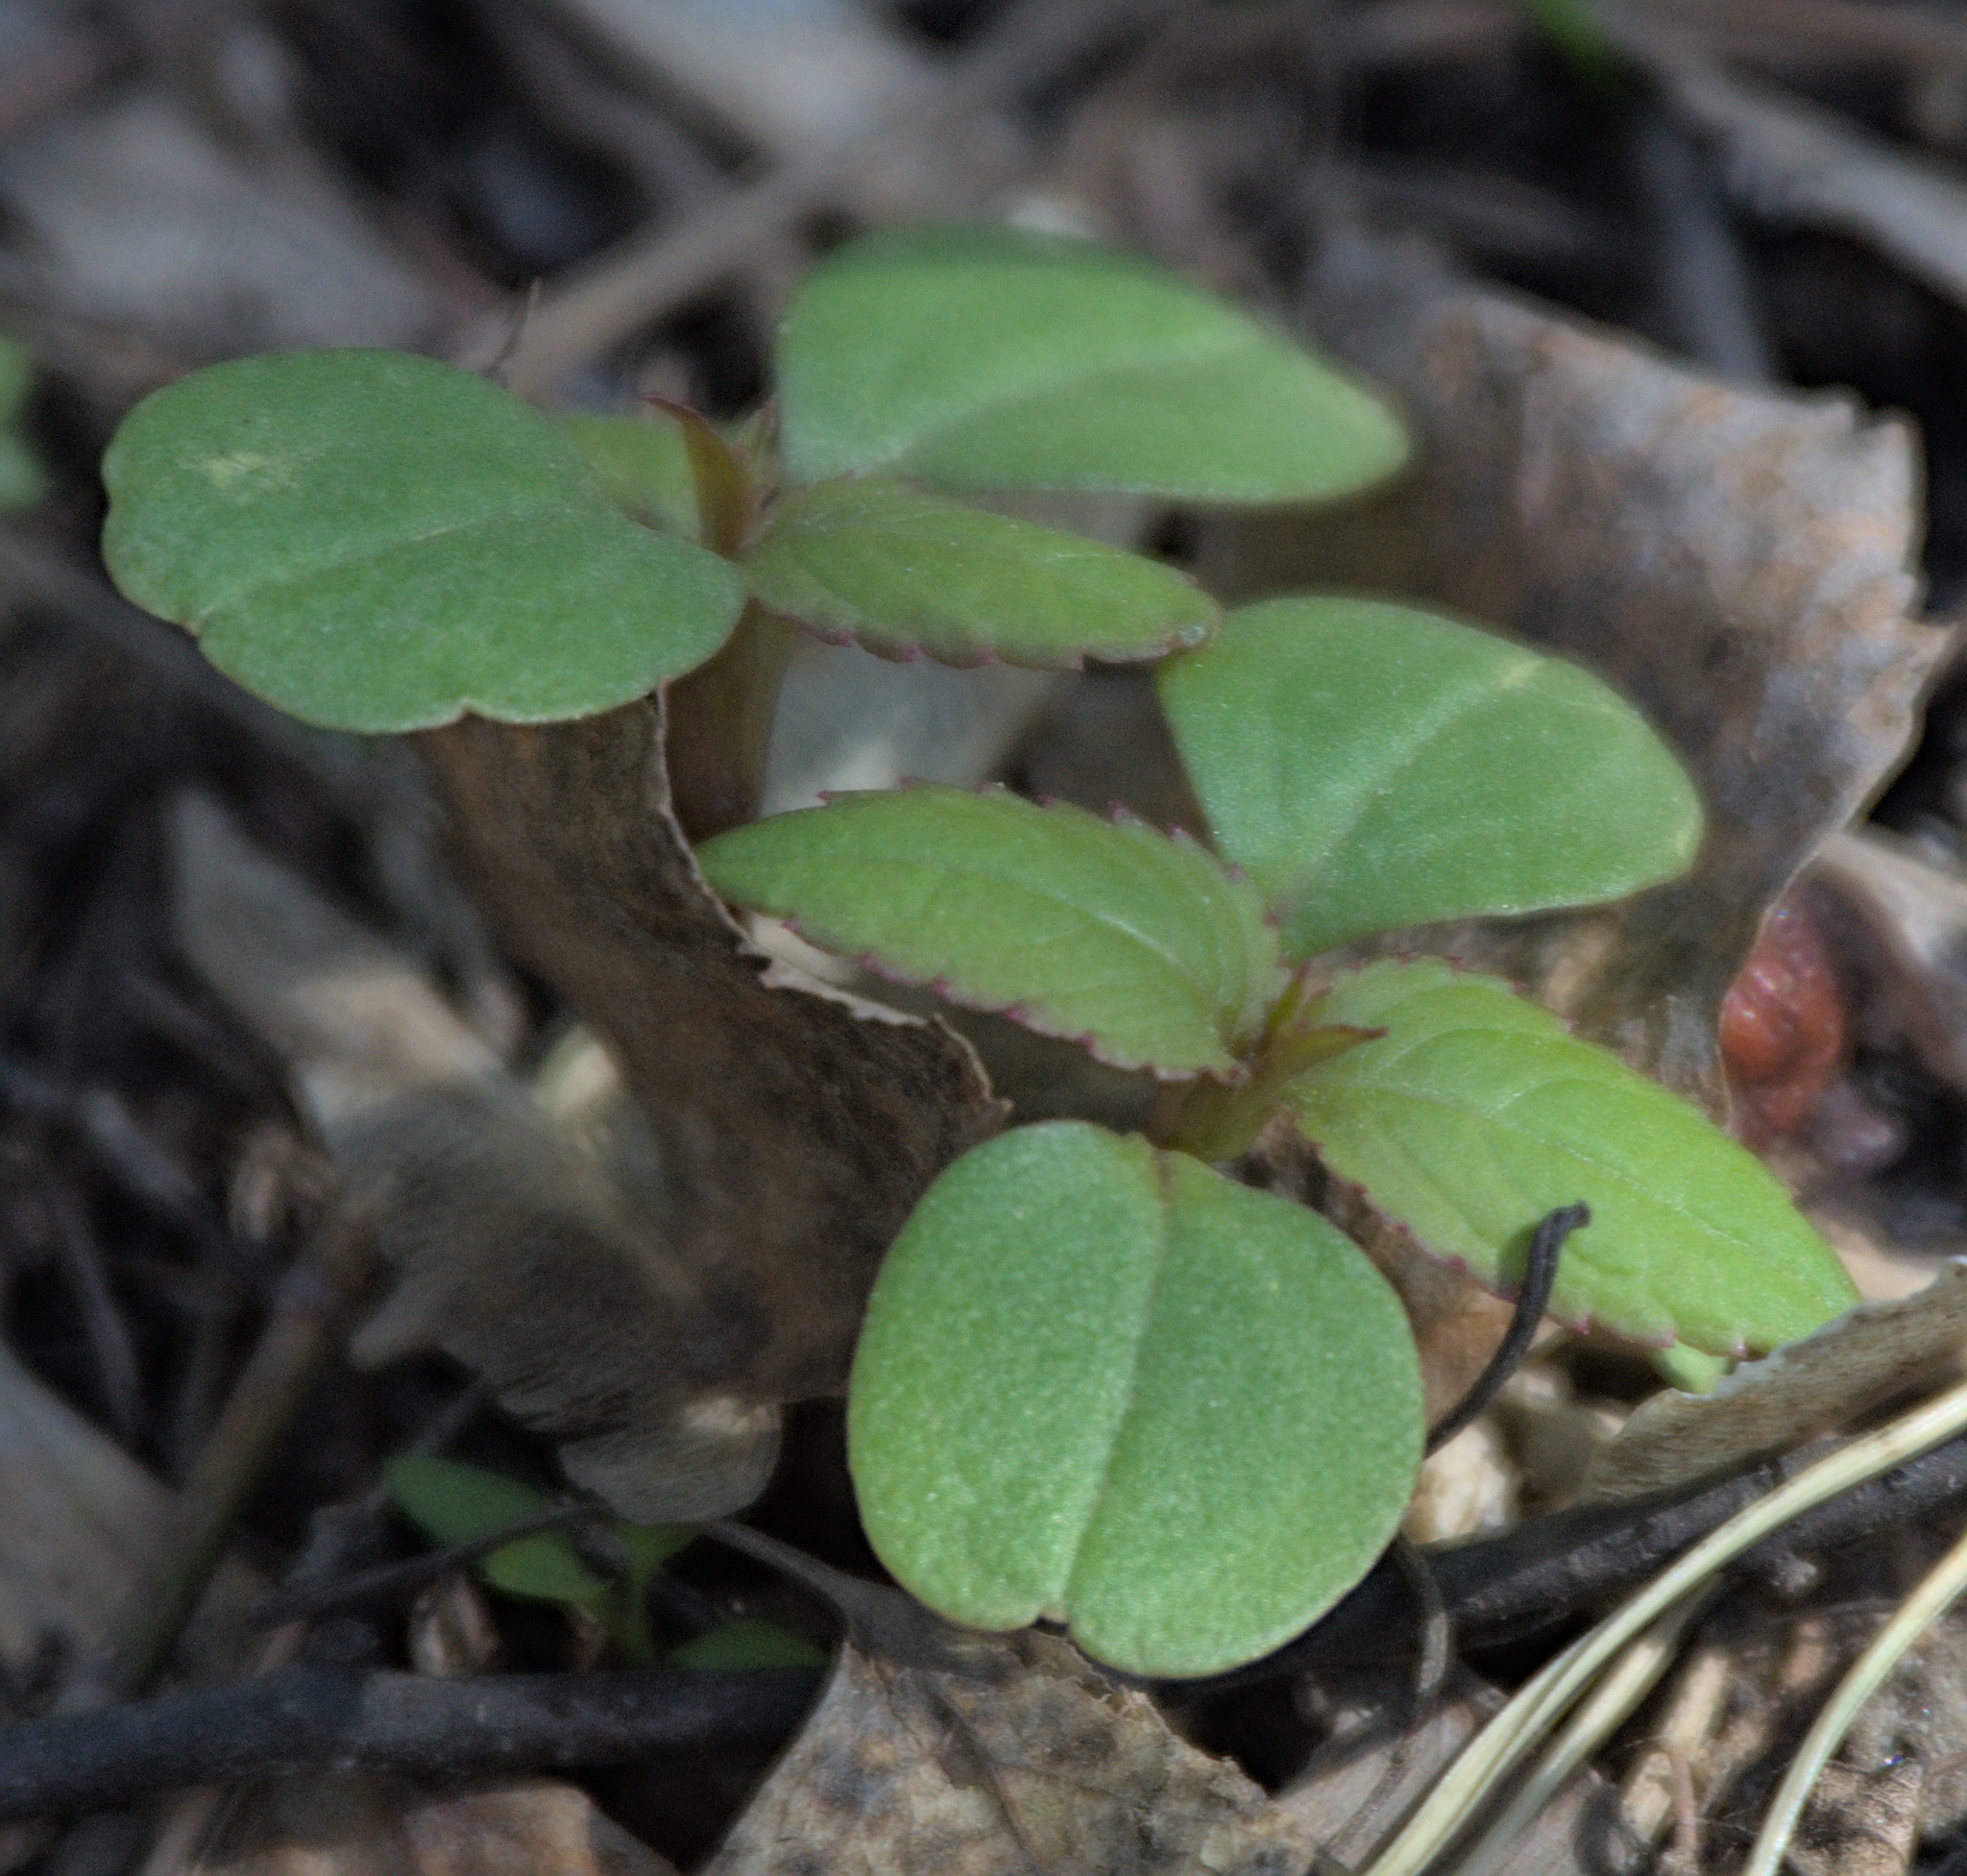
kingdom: Plantae
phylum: Tracheophyta
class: Magnoliopsida
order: Ericales
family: Balsaminaceae
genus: Impatiens
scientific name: Impatiens glandulifera
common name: Himalayan balsam
